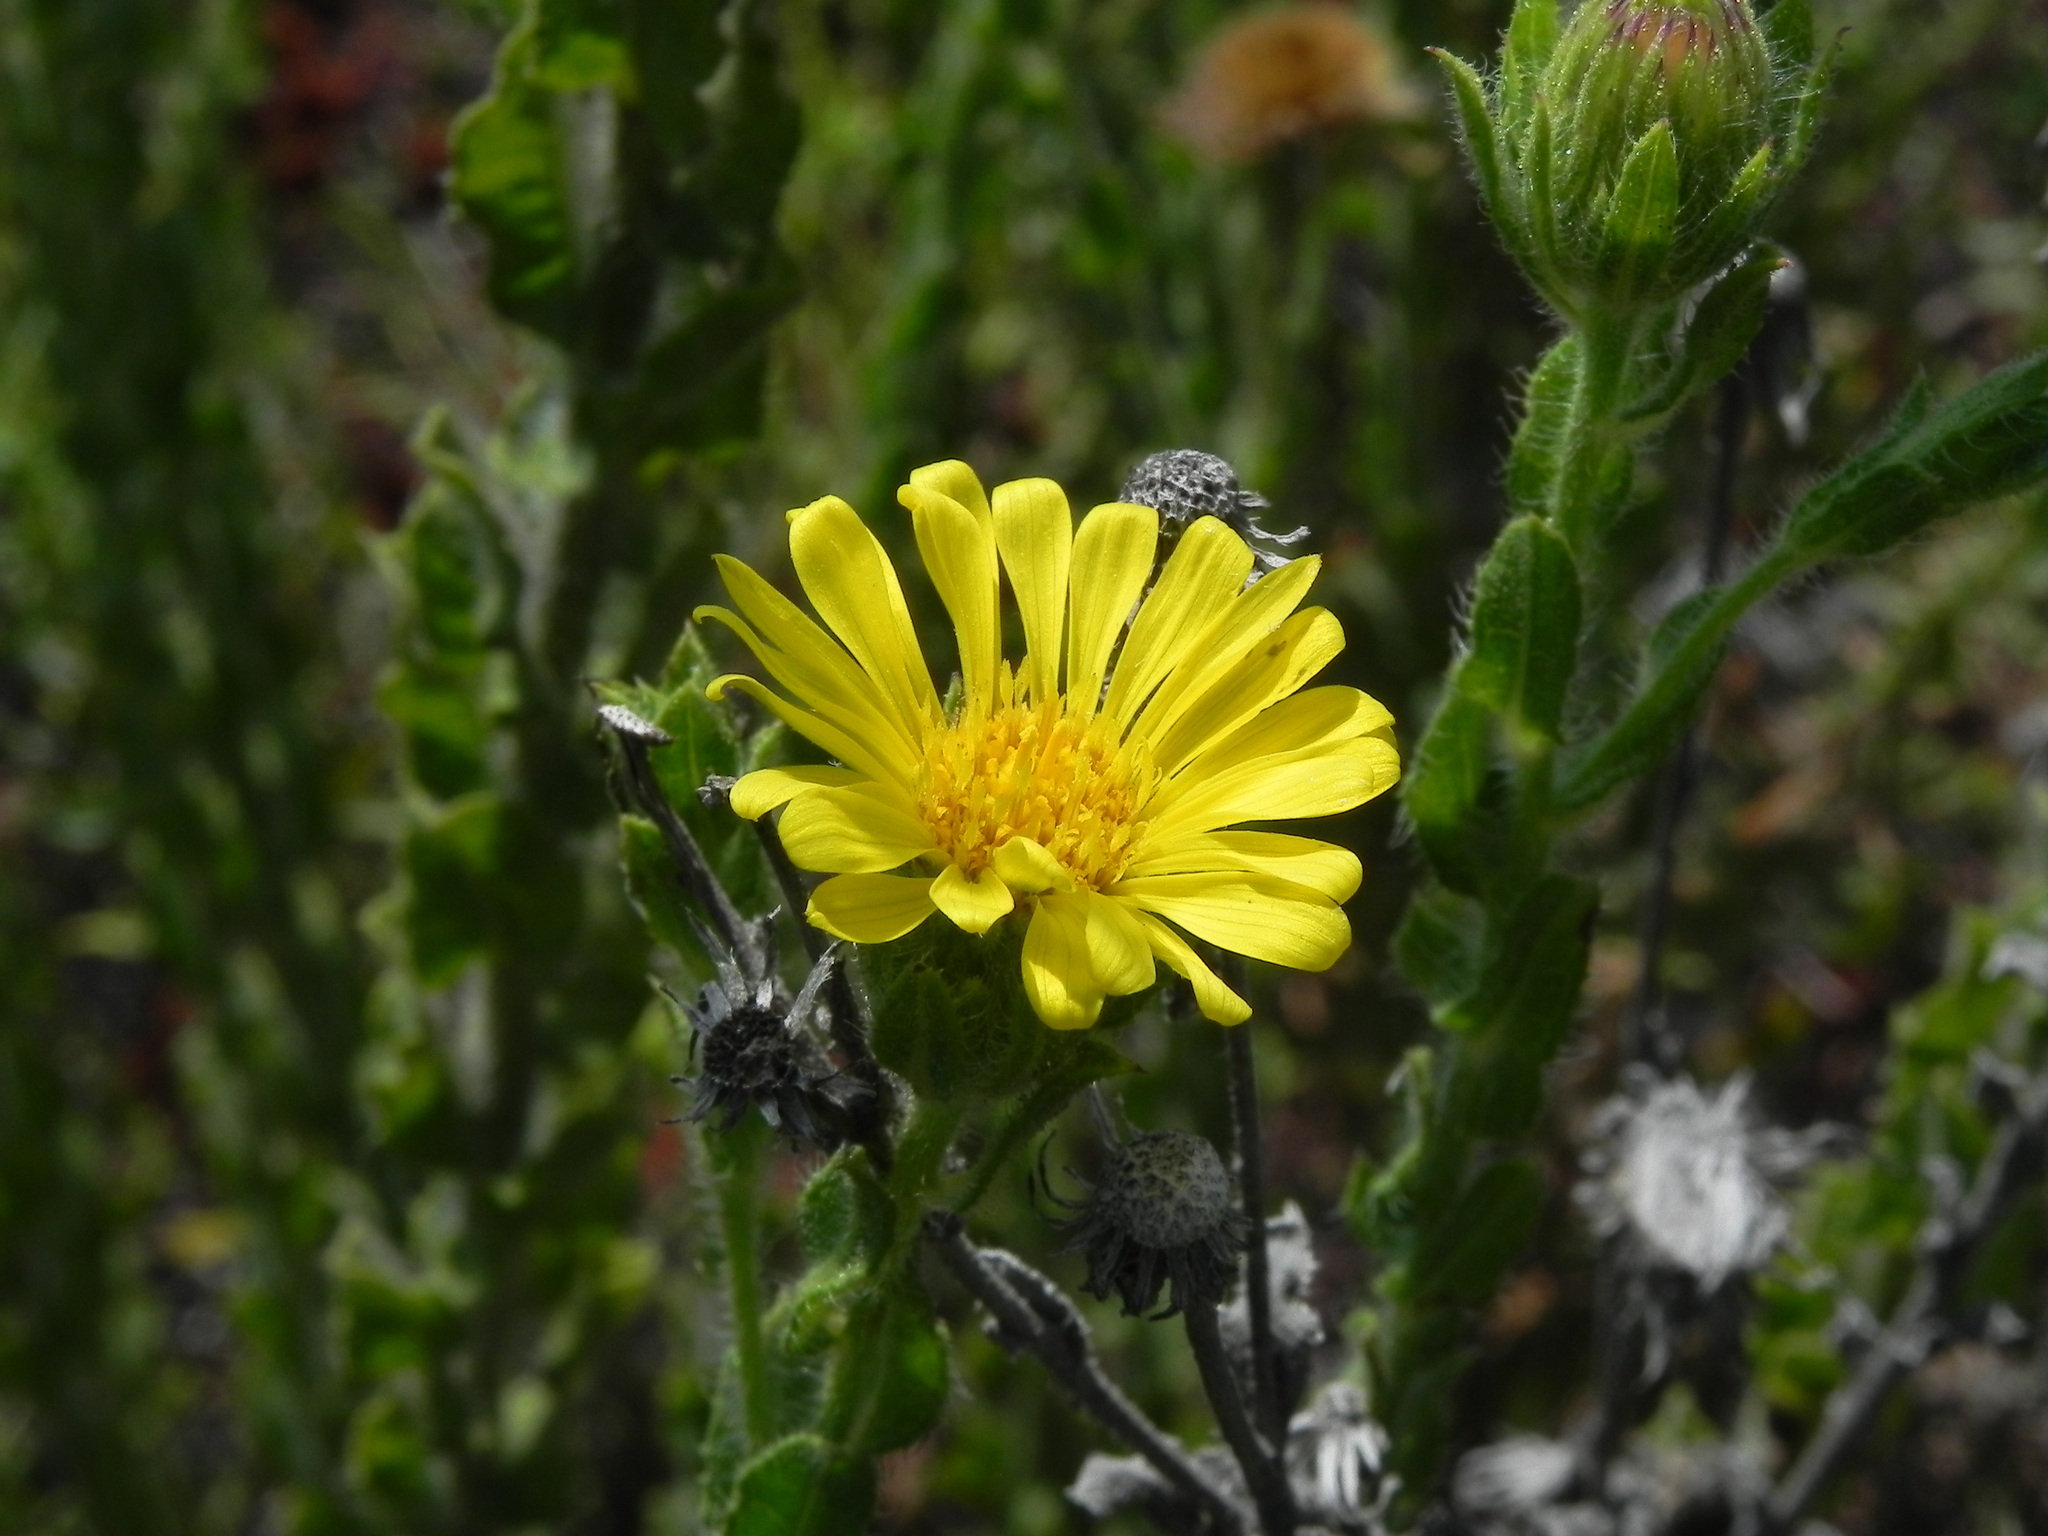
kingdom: Plantae
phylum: Tracheophyta
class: Magnoliopsida
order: Asterales
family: Asteraceae
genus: Heterotheca
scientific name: Heterotheca sessiliflora
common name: Sessile-flower golden-aster
